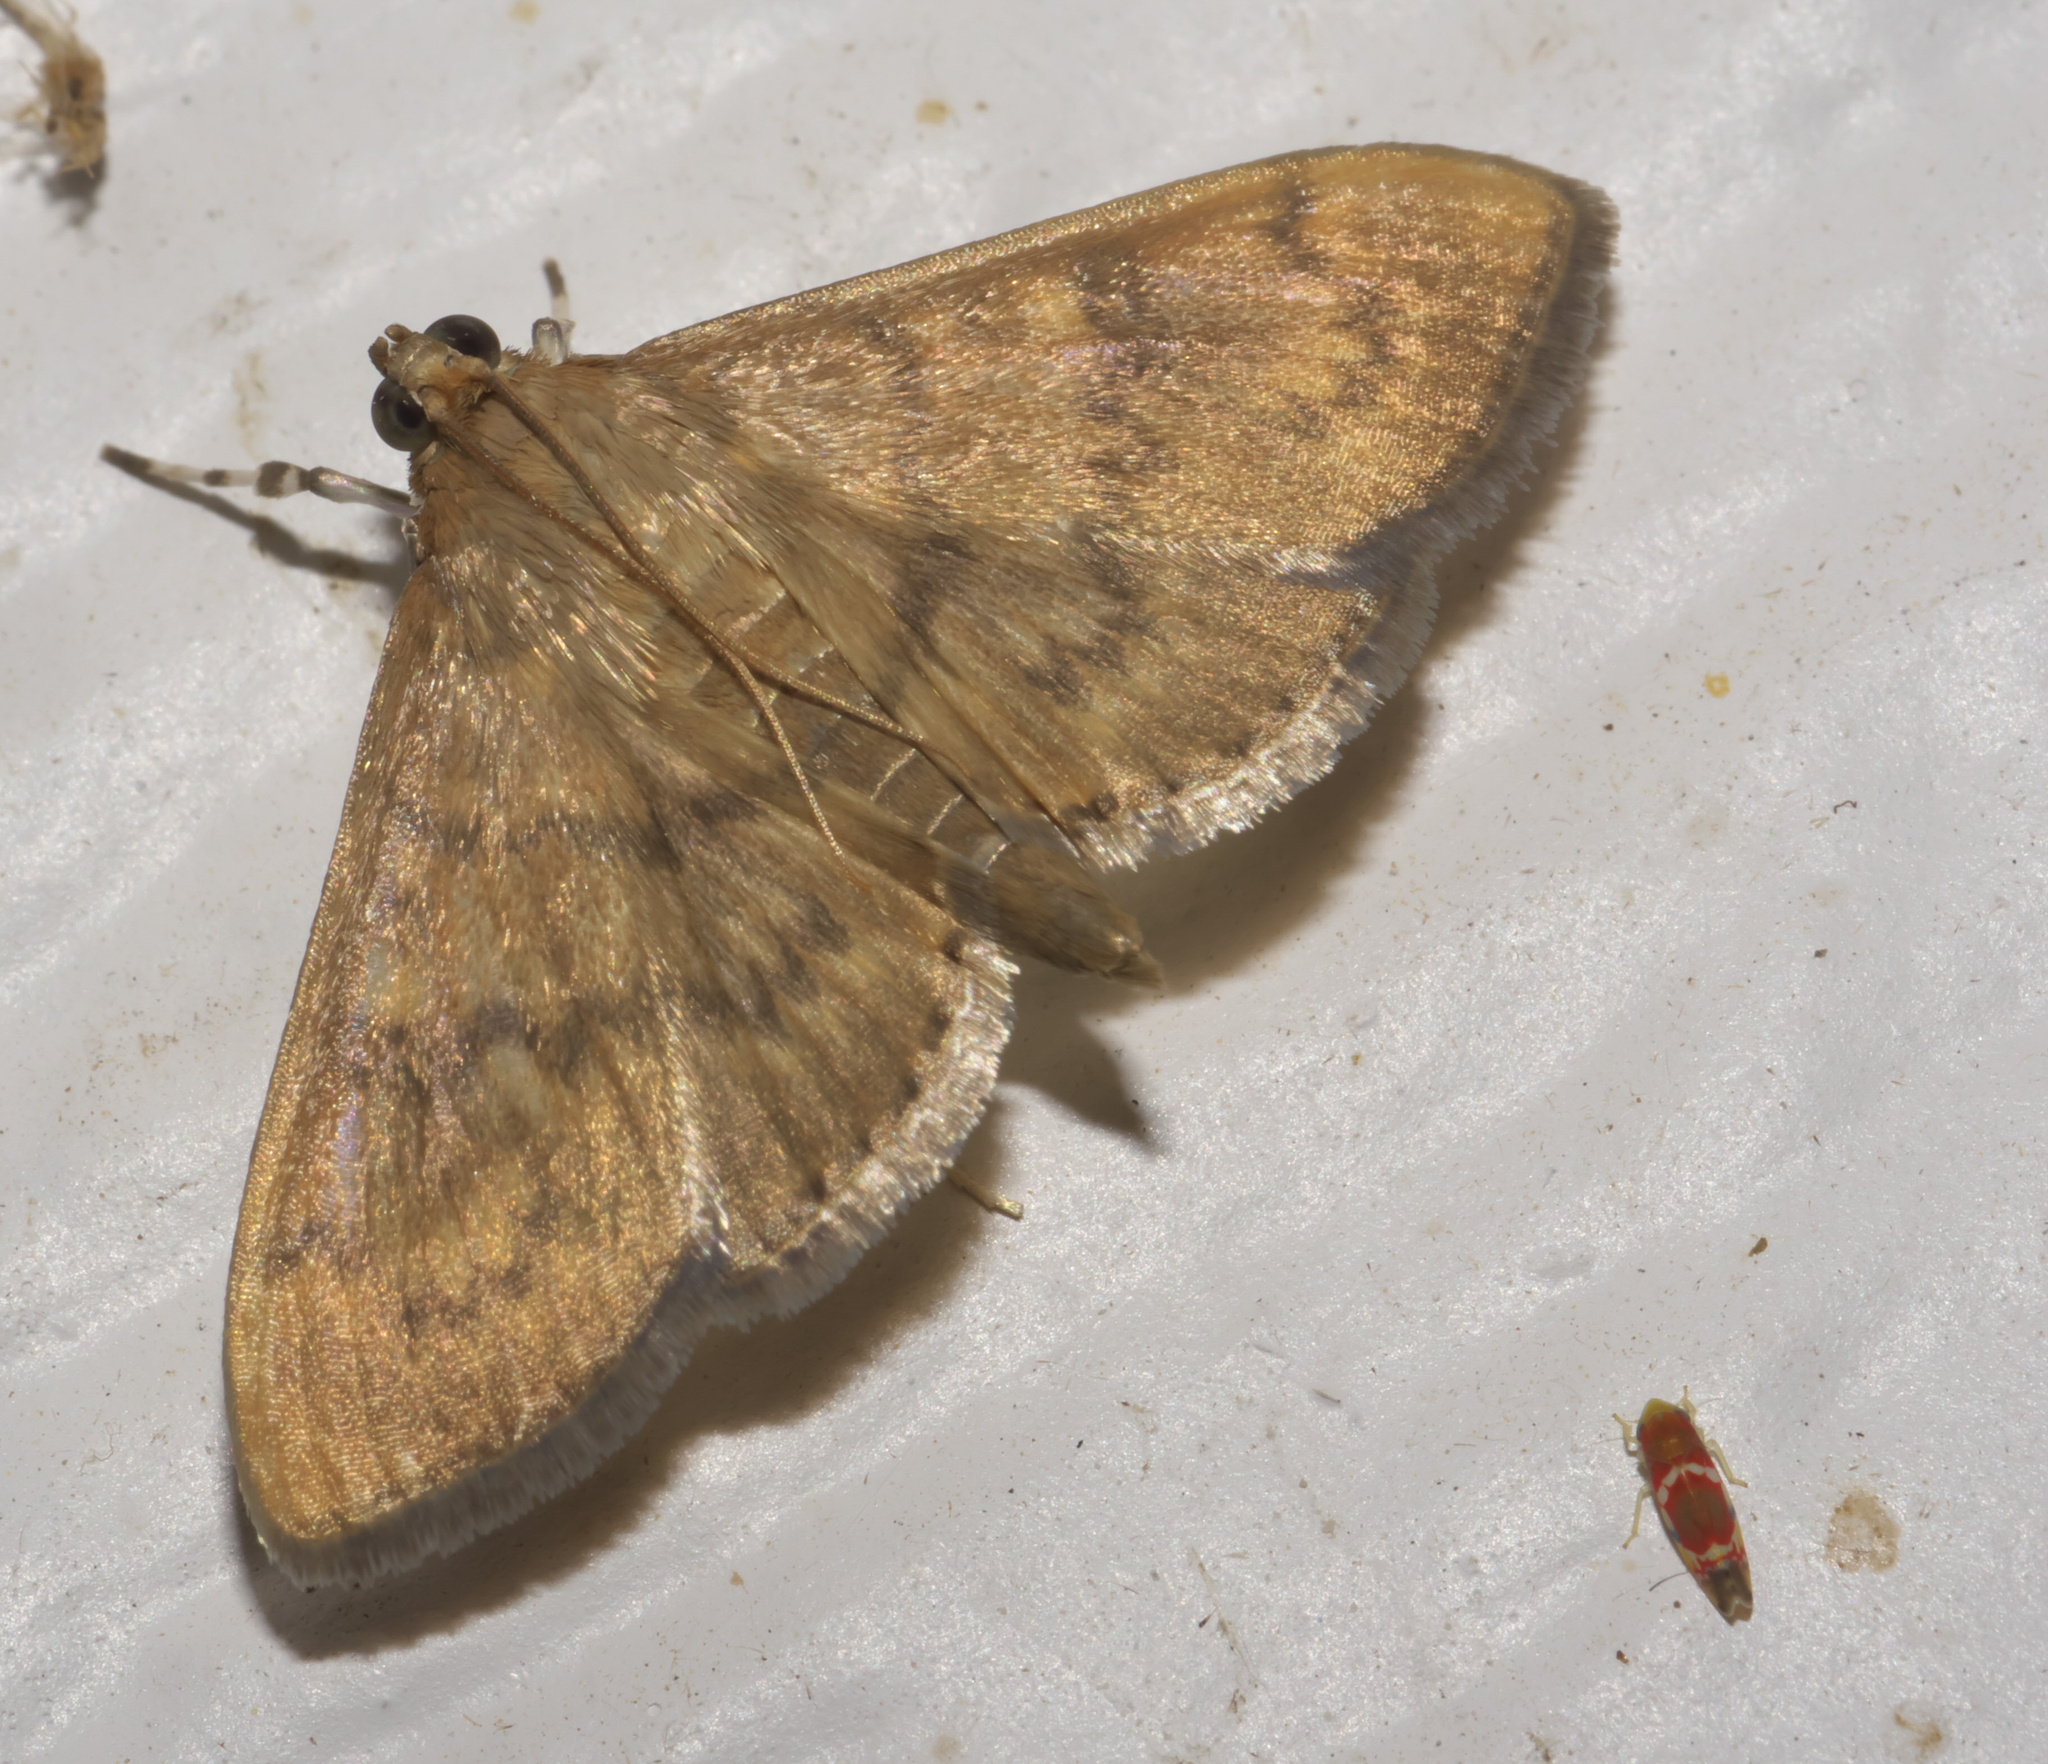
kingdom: Animalia
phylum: Arthropoda
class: Insecta
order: Lepidoptera
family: Crambidae
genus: Syllepte
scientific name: Syllepte obscuralis
